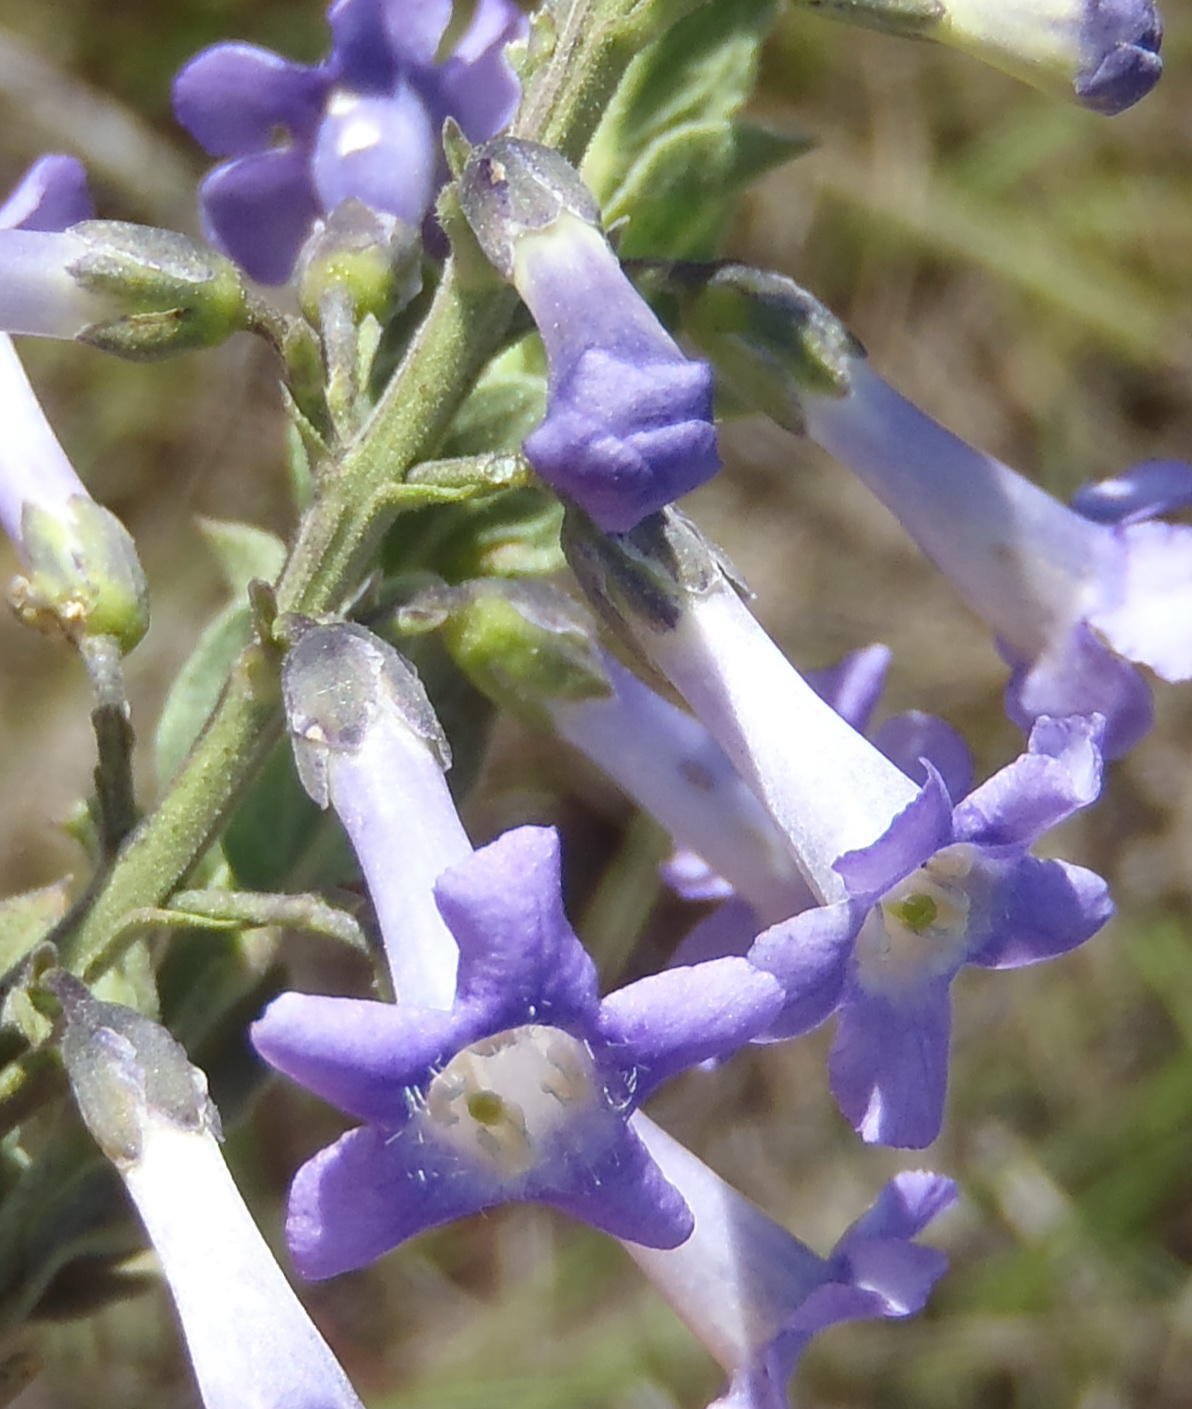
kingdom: Plantae
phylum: Tracheophyta
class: Magnoliopsida
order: Lamiales
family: Scrophulariaceae
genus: Freylinia
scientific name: Freylinia undulata
